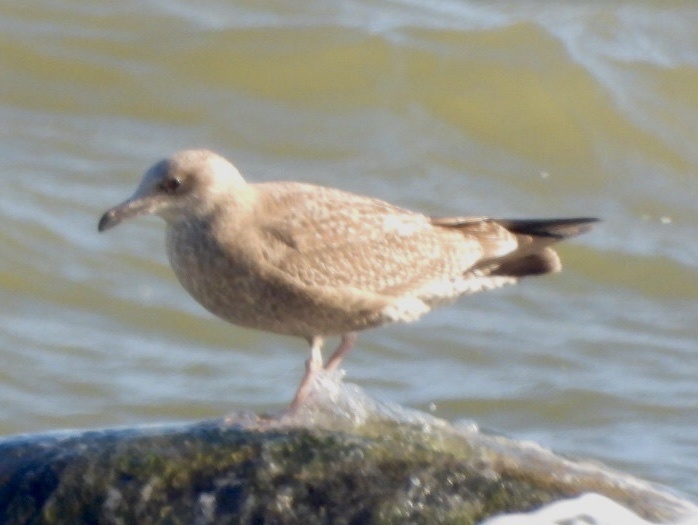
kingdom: Animalia
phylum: Chordata
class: Aves
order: Charadriiformes
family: Laridae
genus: Larus
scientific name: Larus argentatus
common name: Herring gull
